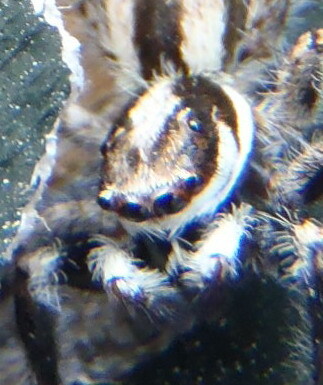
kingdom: Animalia
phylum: Arthropoda
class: Arachnida
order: Araneae
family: Salticidae
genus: Menemerus
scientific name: Menemerus bivittatus
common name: Gray wall jumper
